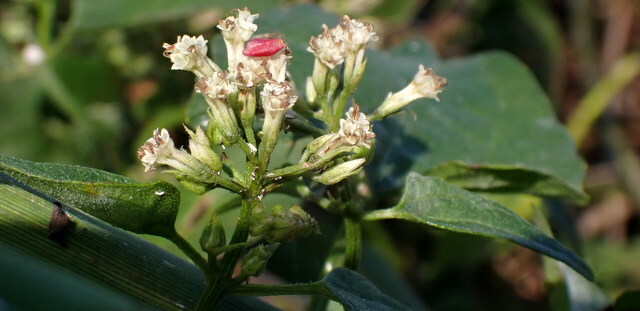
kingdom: Plantae
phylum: Tracheophyta
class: Magnoliopsida
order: Asterales
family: Asteraceae
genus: Mikania
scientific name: Mikania scandens
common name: Climbing hempvine
